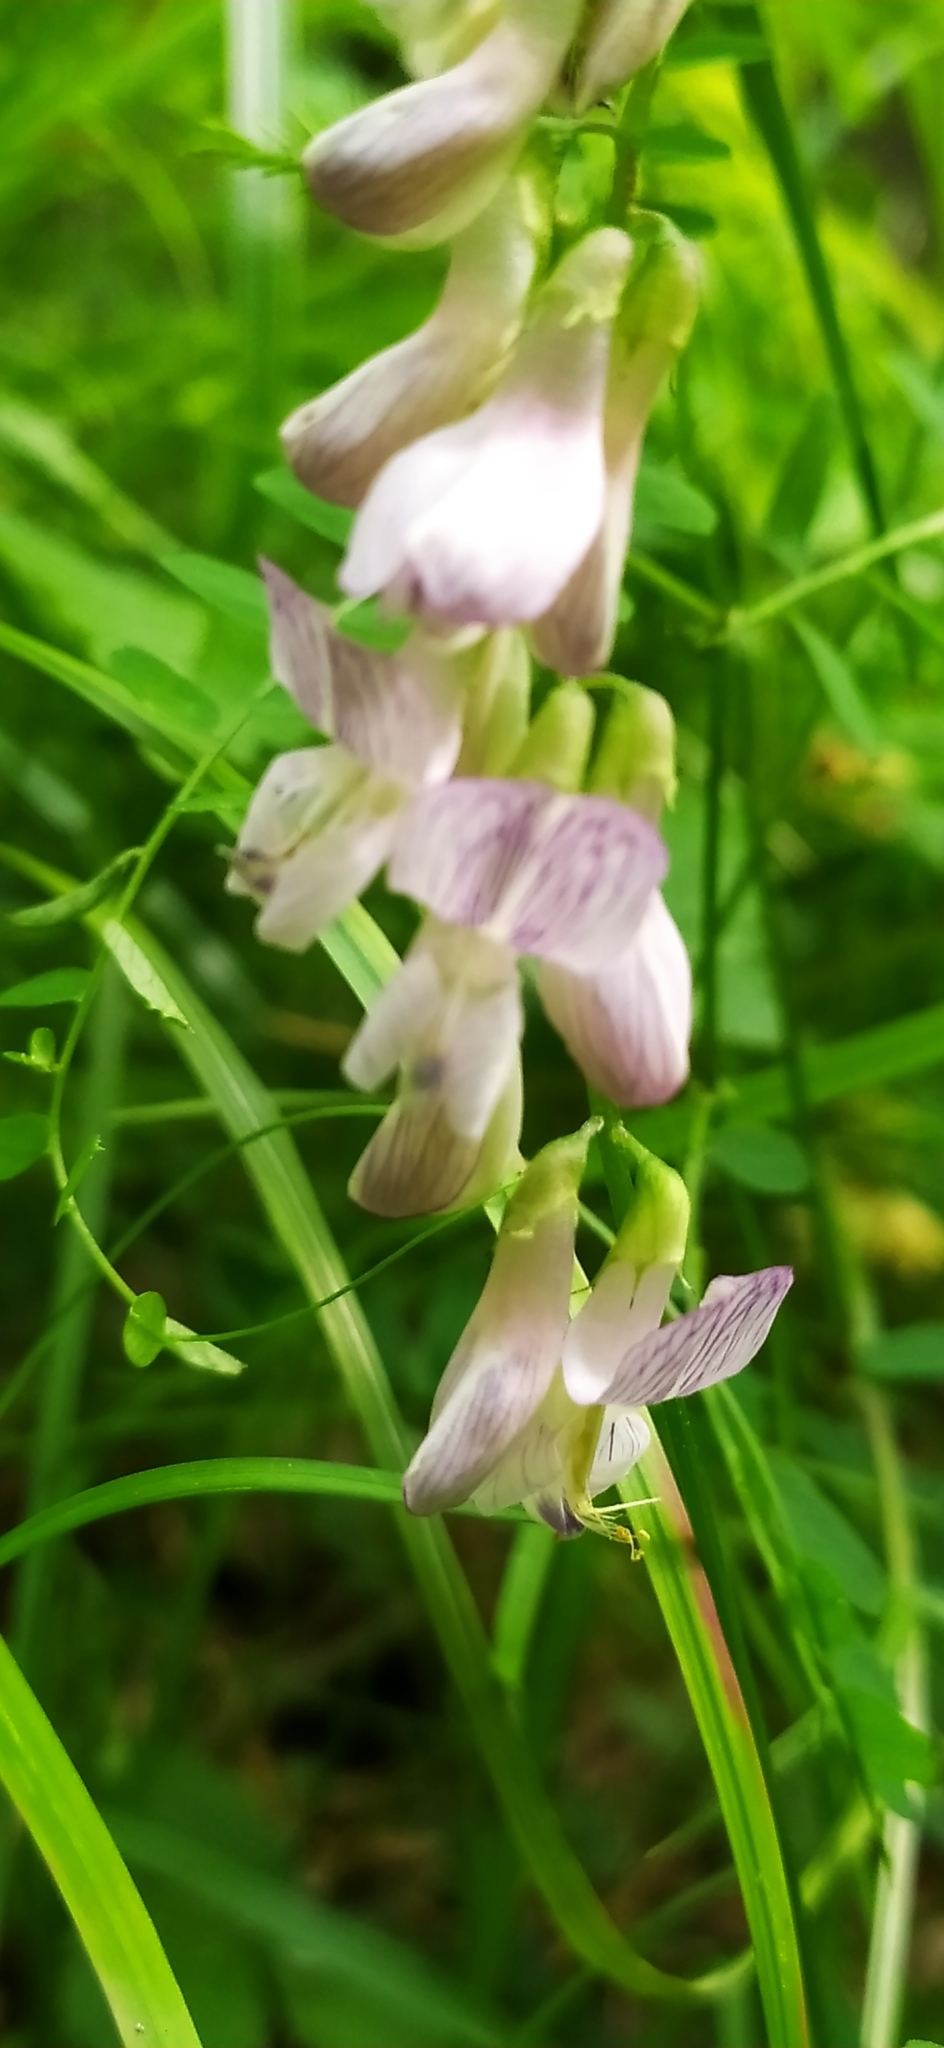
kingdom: Plantae
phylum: Tracheophyta
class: Magnoliopsida
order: Fabales
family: Fabaceae
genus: Vicia
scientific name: Vicia sylvatica
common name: Wood vetch
